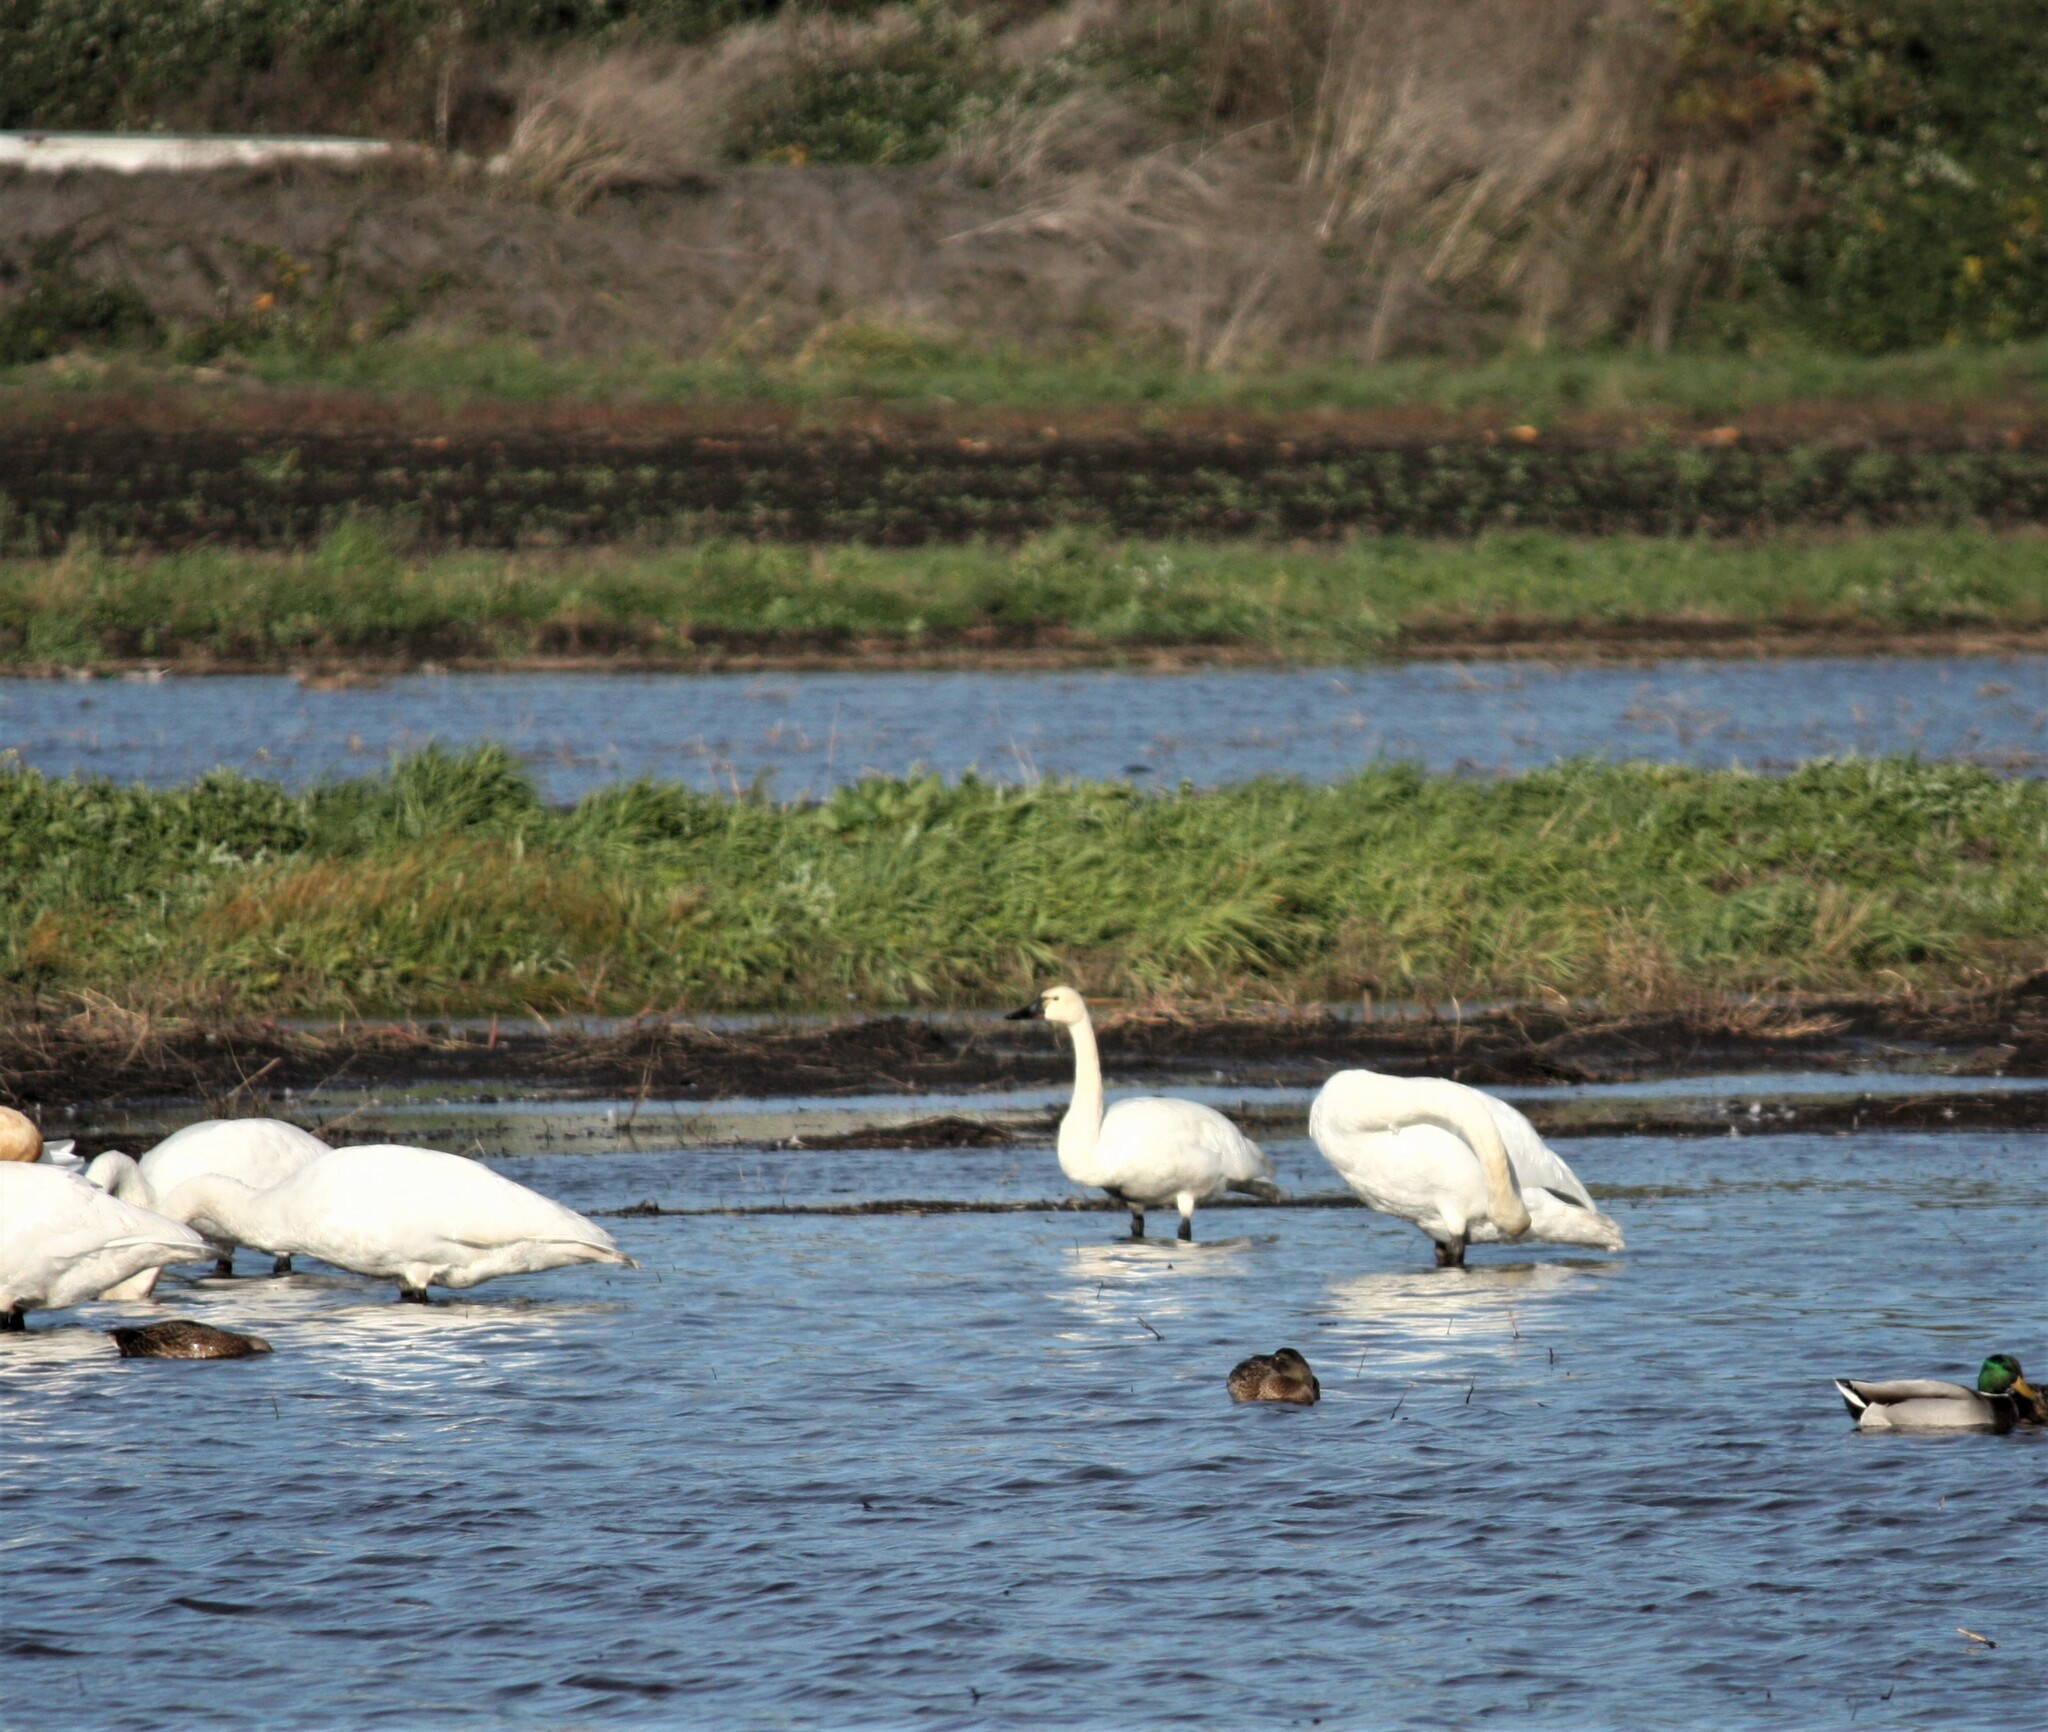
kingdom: Animalia
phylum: Chordata
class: Aves
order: Anseriformes
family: Anatidae
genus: Cygnus
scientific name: Cygnus columbianus
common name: Tundra swan
